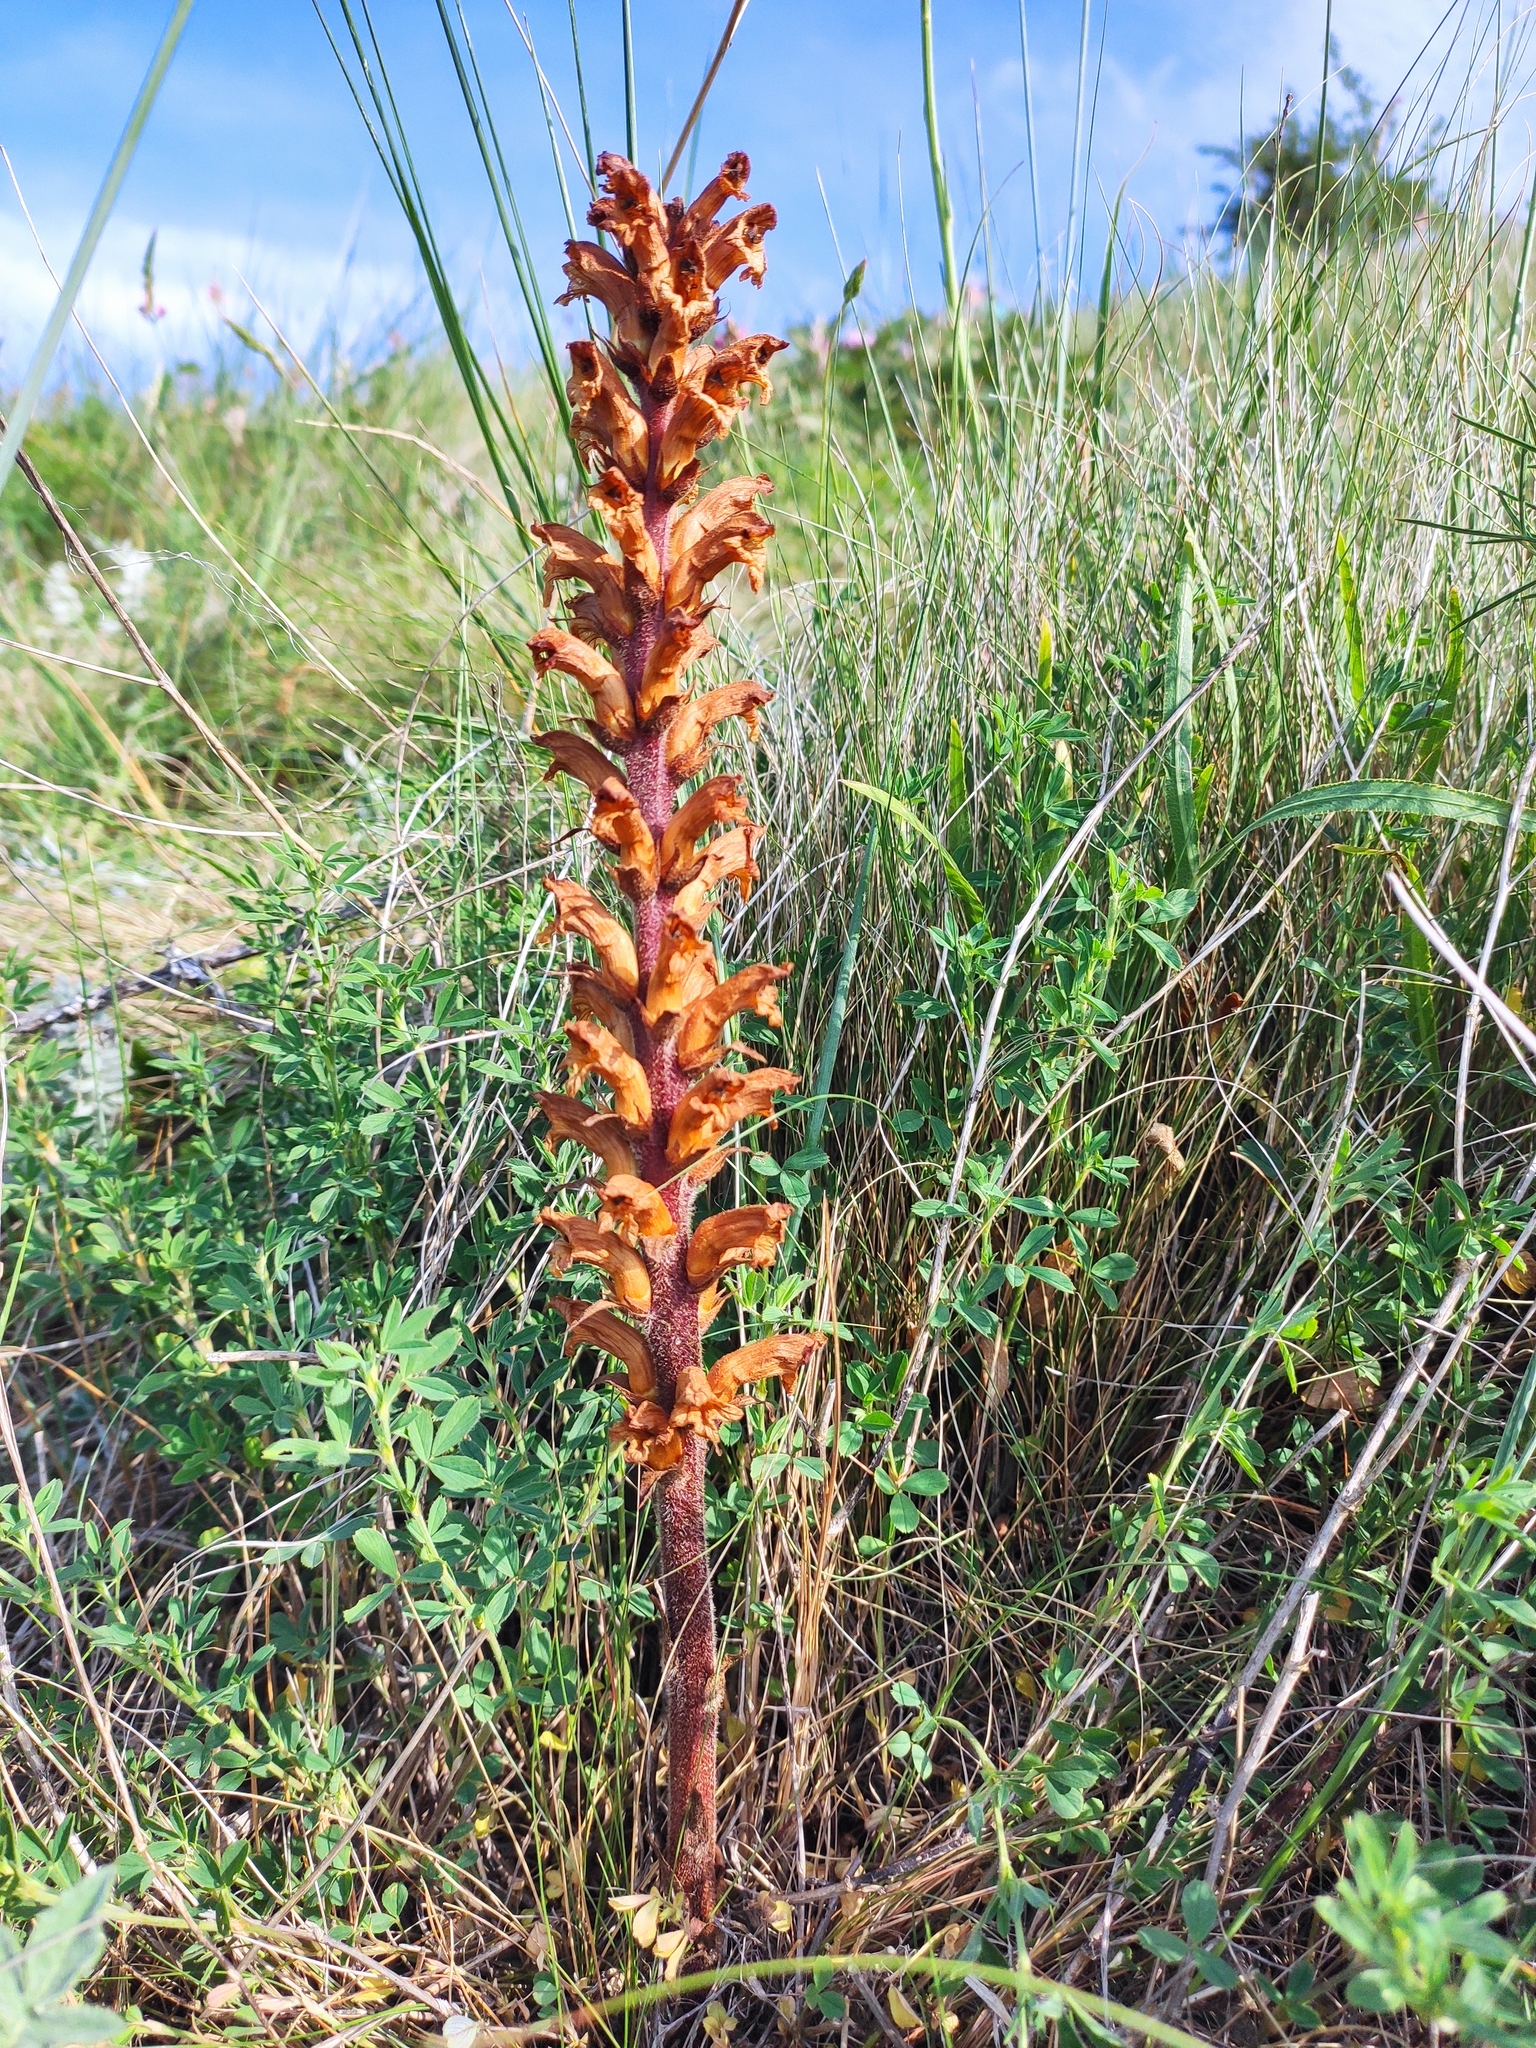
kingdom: Plantae
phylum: Tracheophyta
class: Magnoliopsida
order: Lamiales
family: Orobanchaceae
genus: Orobanche
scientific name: Orobanche lutea
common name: Yellow broomrape
